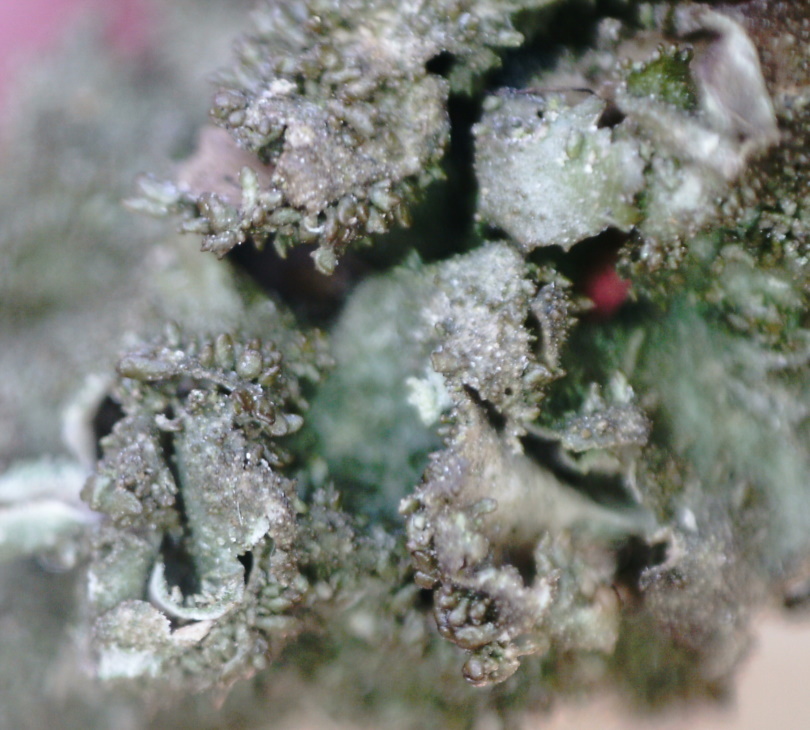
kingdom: Fungi
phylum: Ascomycota
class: Lecanoromycetes
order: Lecanorales
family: Parmeliaceae
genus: Melanohalea
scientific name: Melanohalea exasperatula
